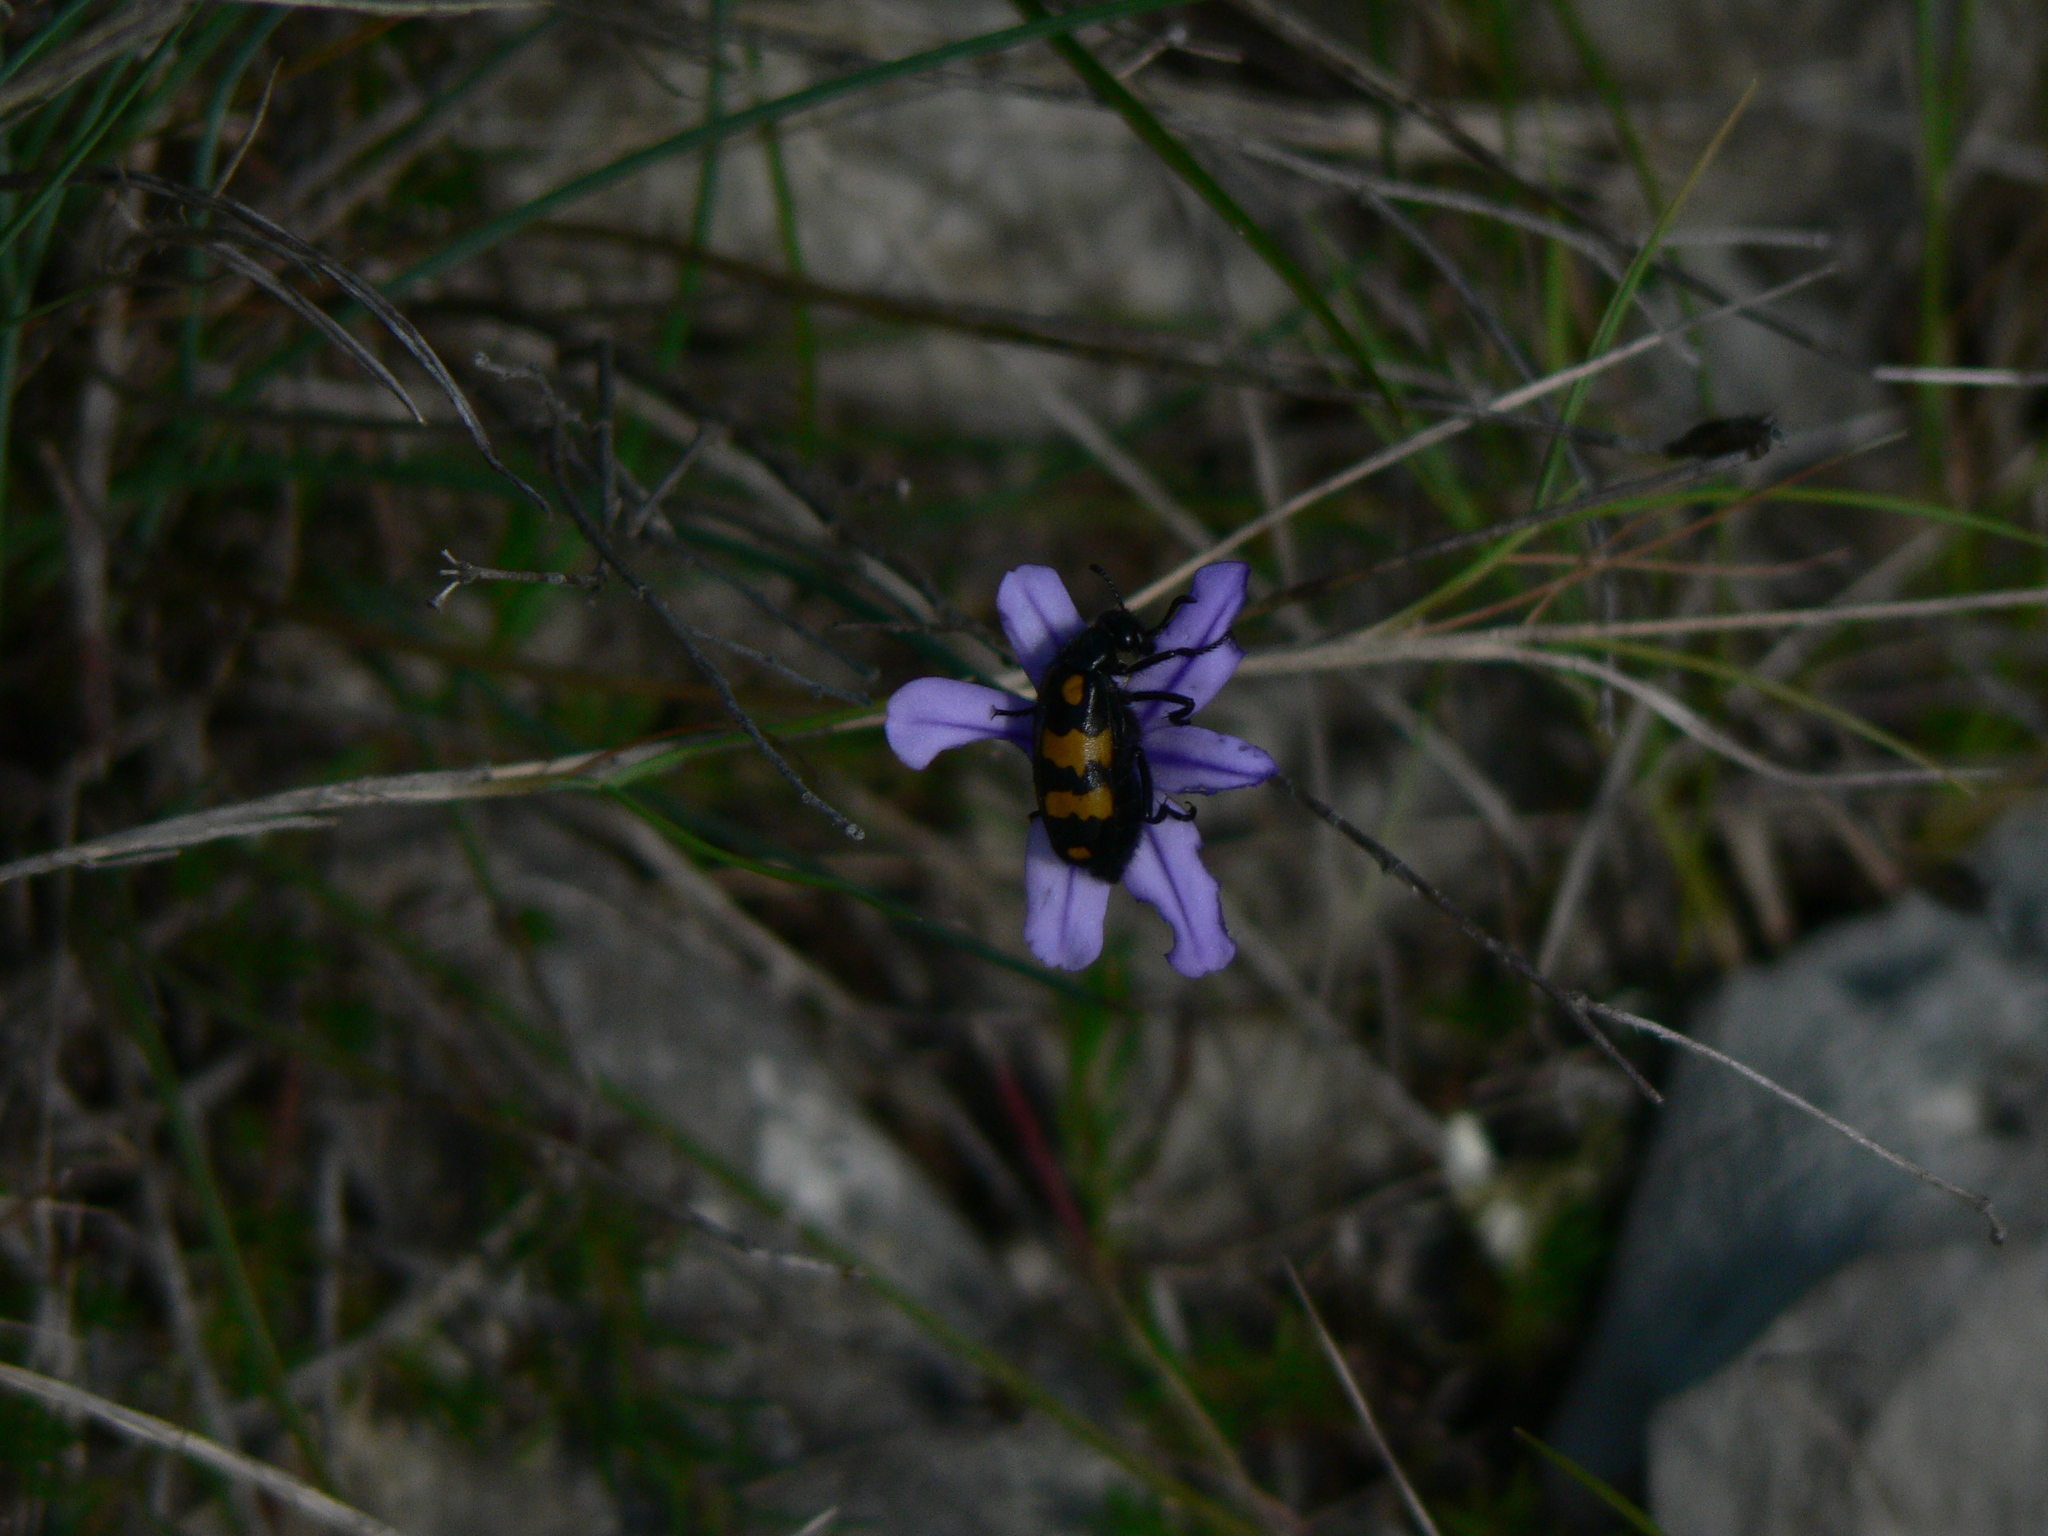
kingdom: Animalia
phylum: Arthropoda
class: Insecta
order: Coleoptera
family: Meloidae
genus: Hycleus
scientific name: Hycleus polymorphus
